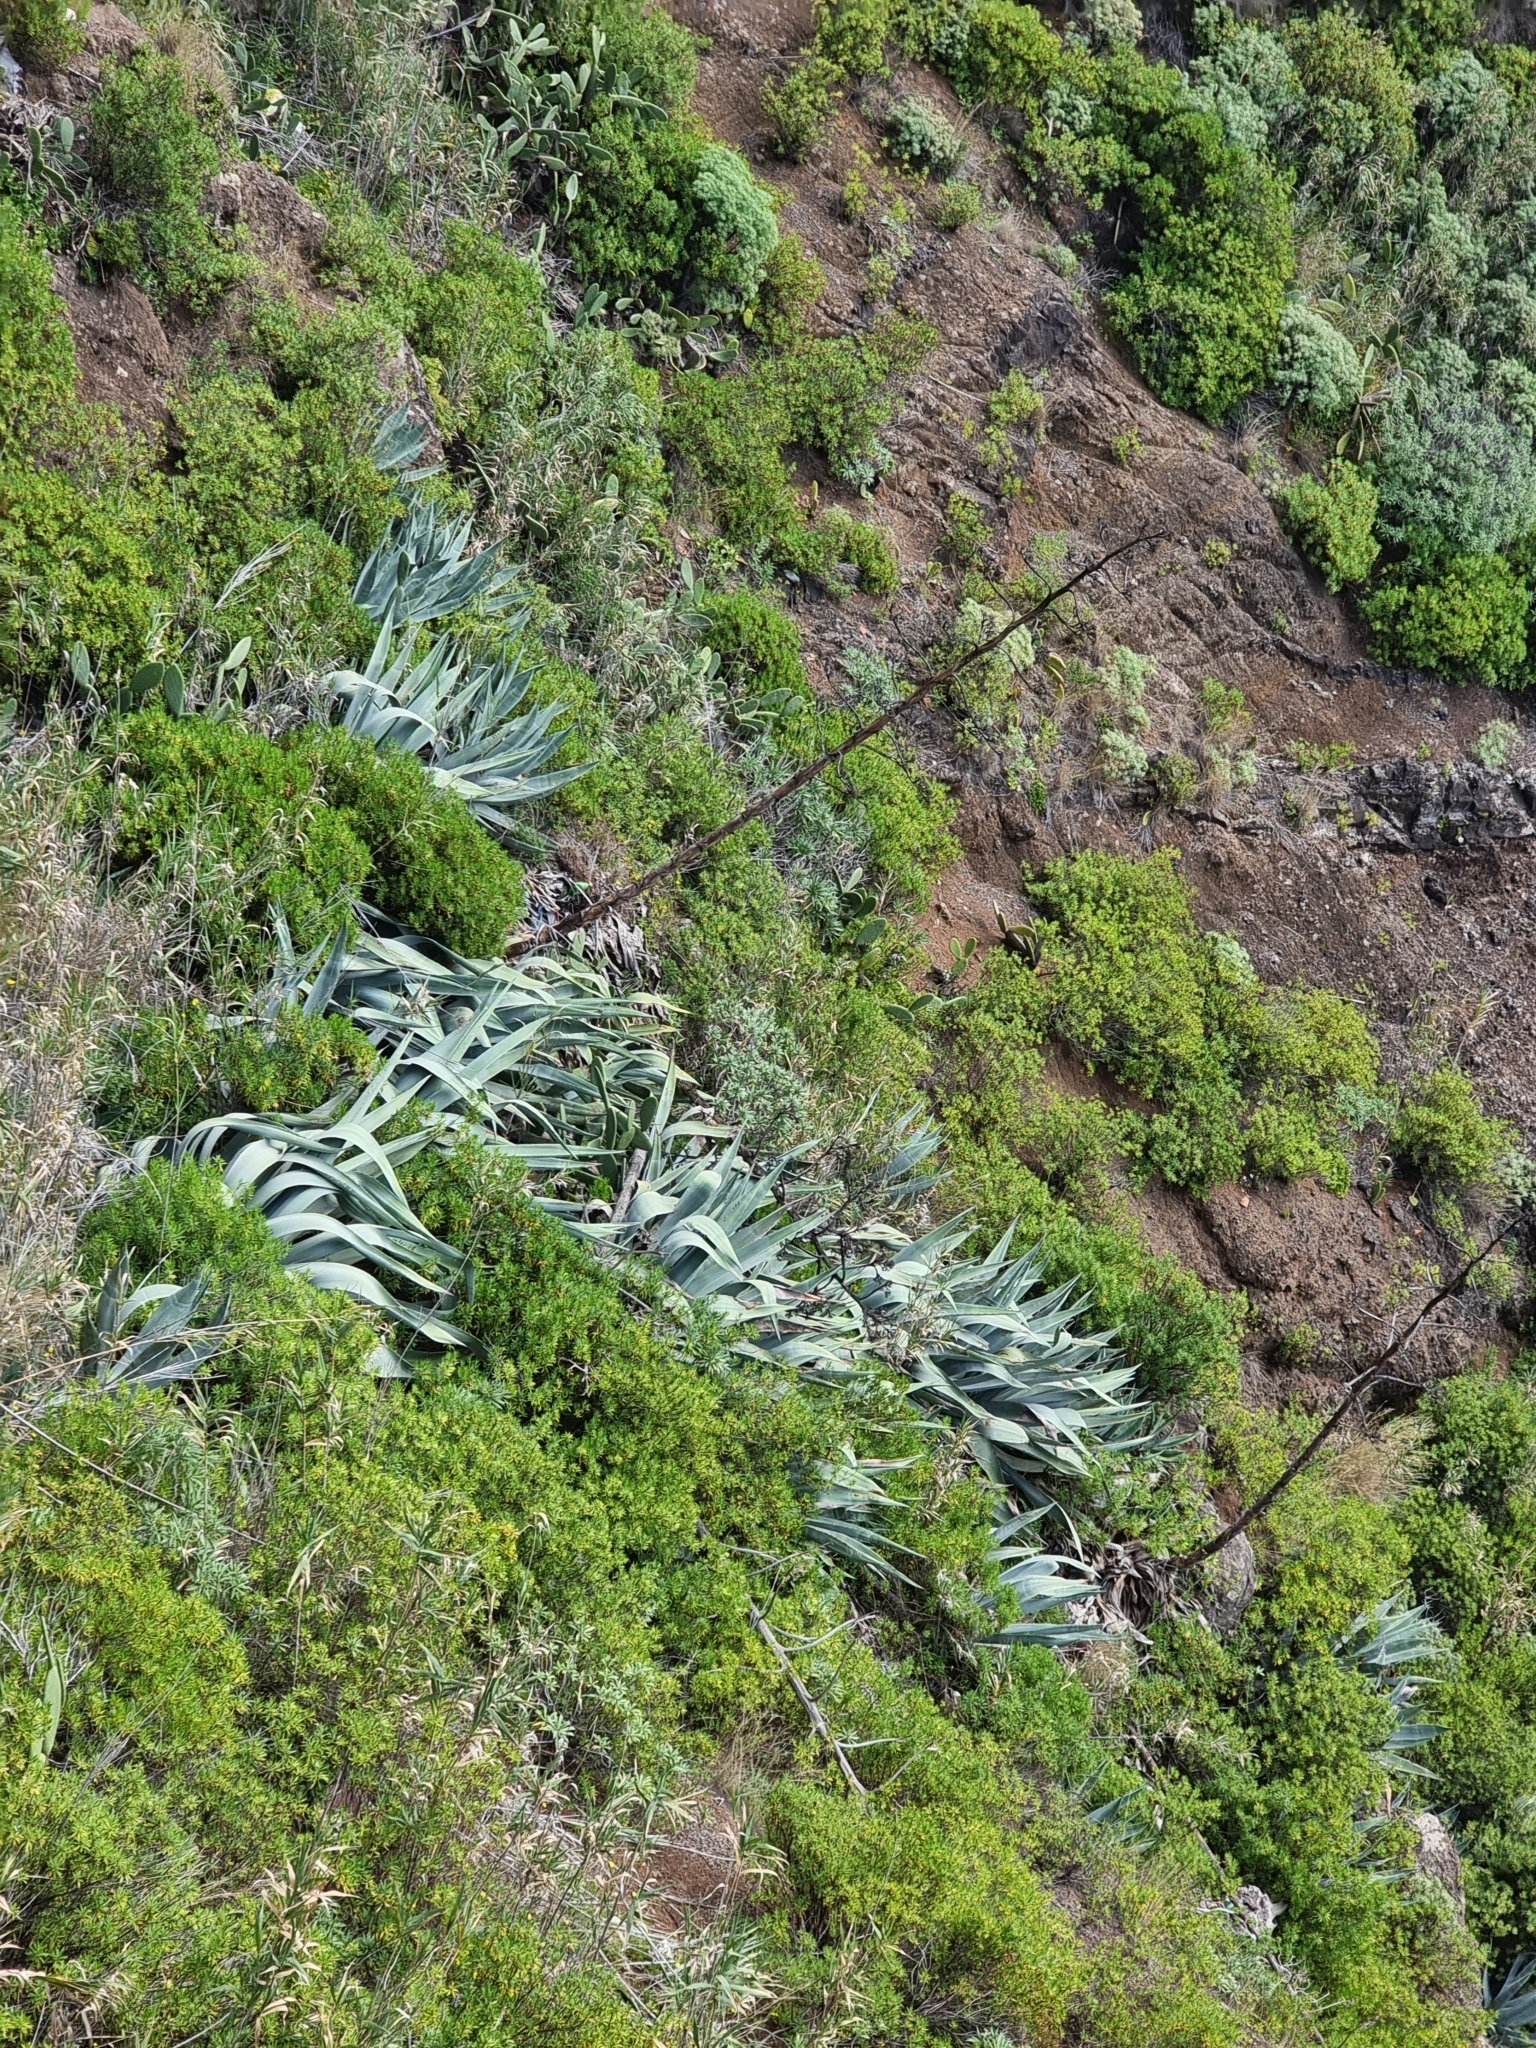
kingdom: Plantae
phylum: Tracheophyta
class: Liliopsida
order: Asparagales
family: Asparagaceae
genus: Agave
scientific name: Agave americana
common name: Centuryplant
